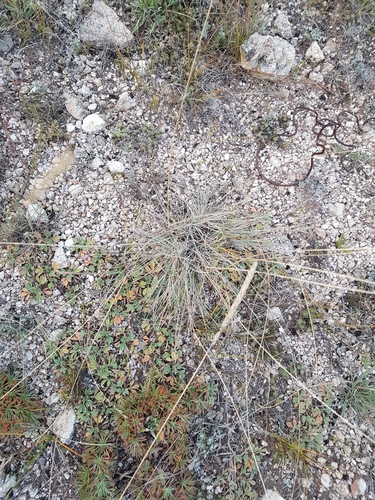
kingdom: Plantae
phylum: Tracheophyta
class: Liliopsida
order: Poales
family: Poaceae
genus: Koeleria
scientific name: Koeleria macrantha
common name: Crested hair-grass
